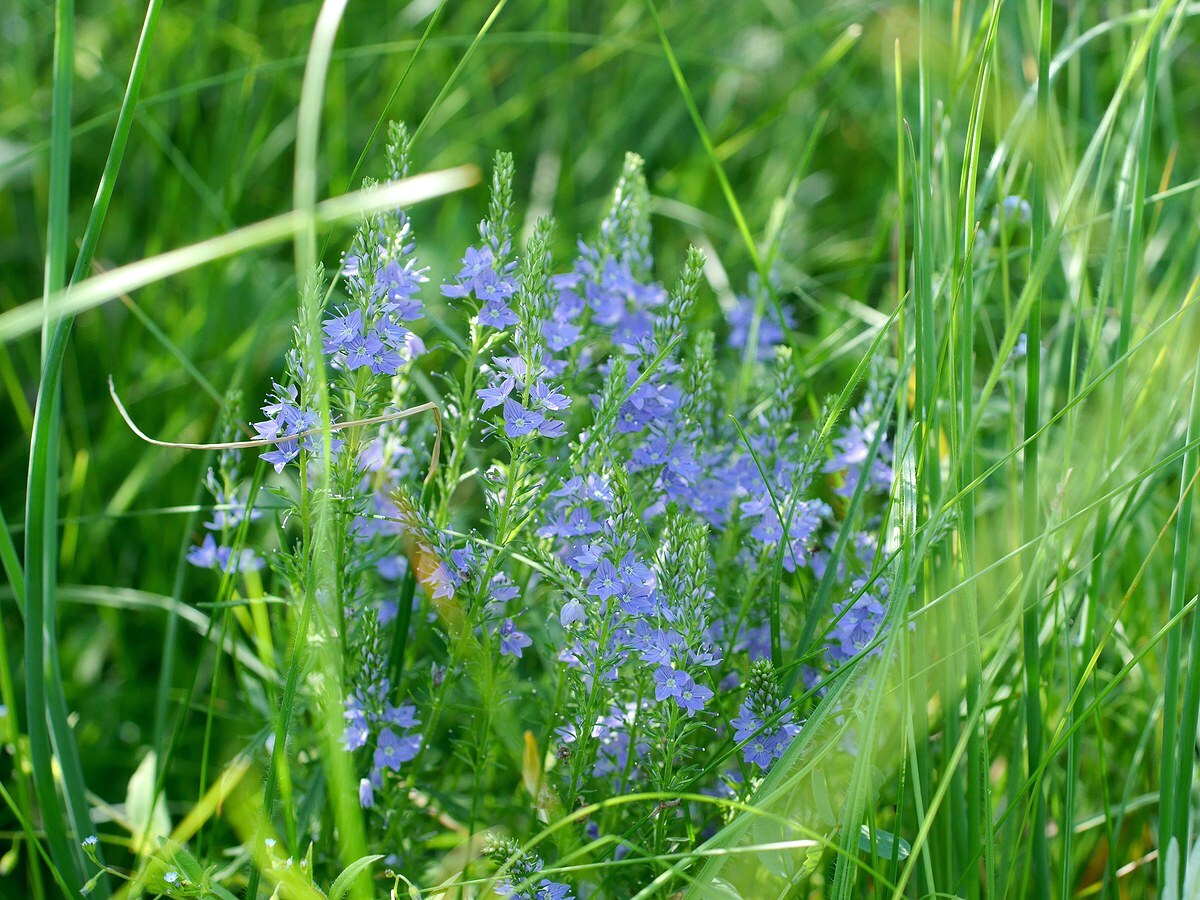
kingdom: Plantae
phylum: Tracheophyta
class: Magnoliopsida
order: Lamiales
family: Plantaginaceae
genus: Veronica
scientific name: Veronica austriaca
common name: Large speedwell
